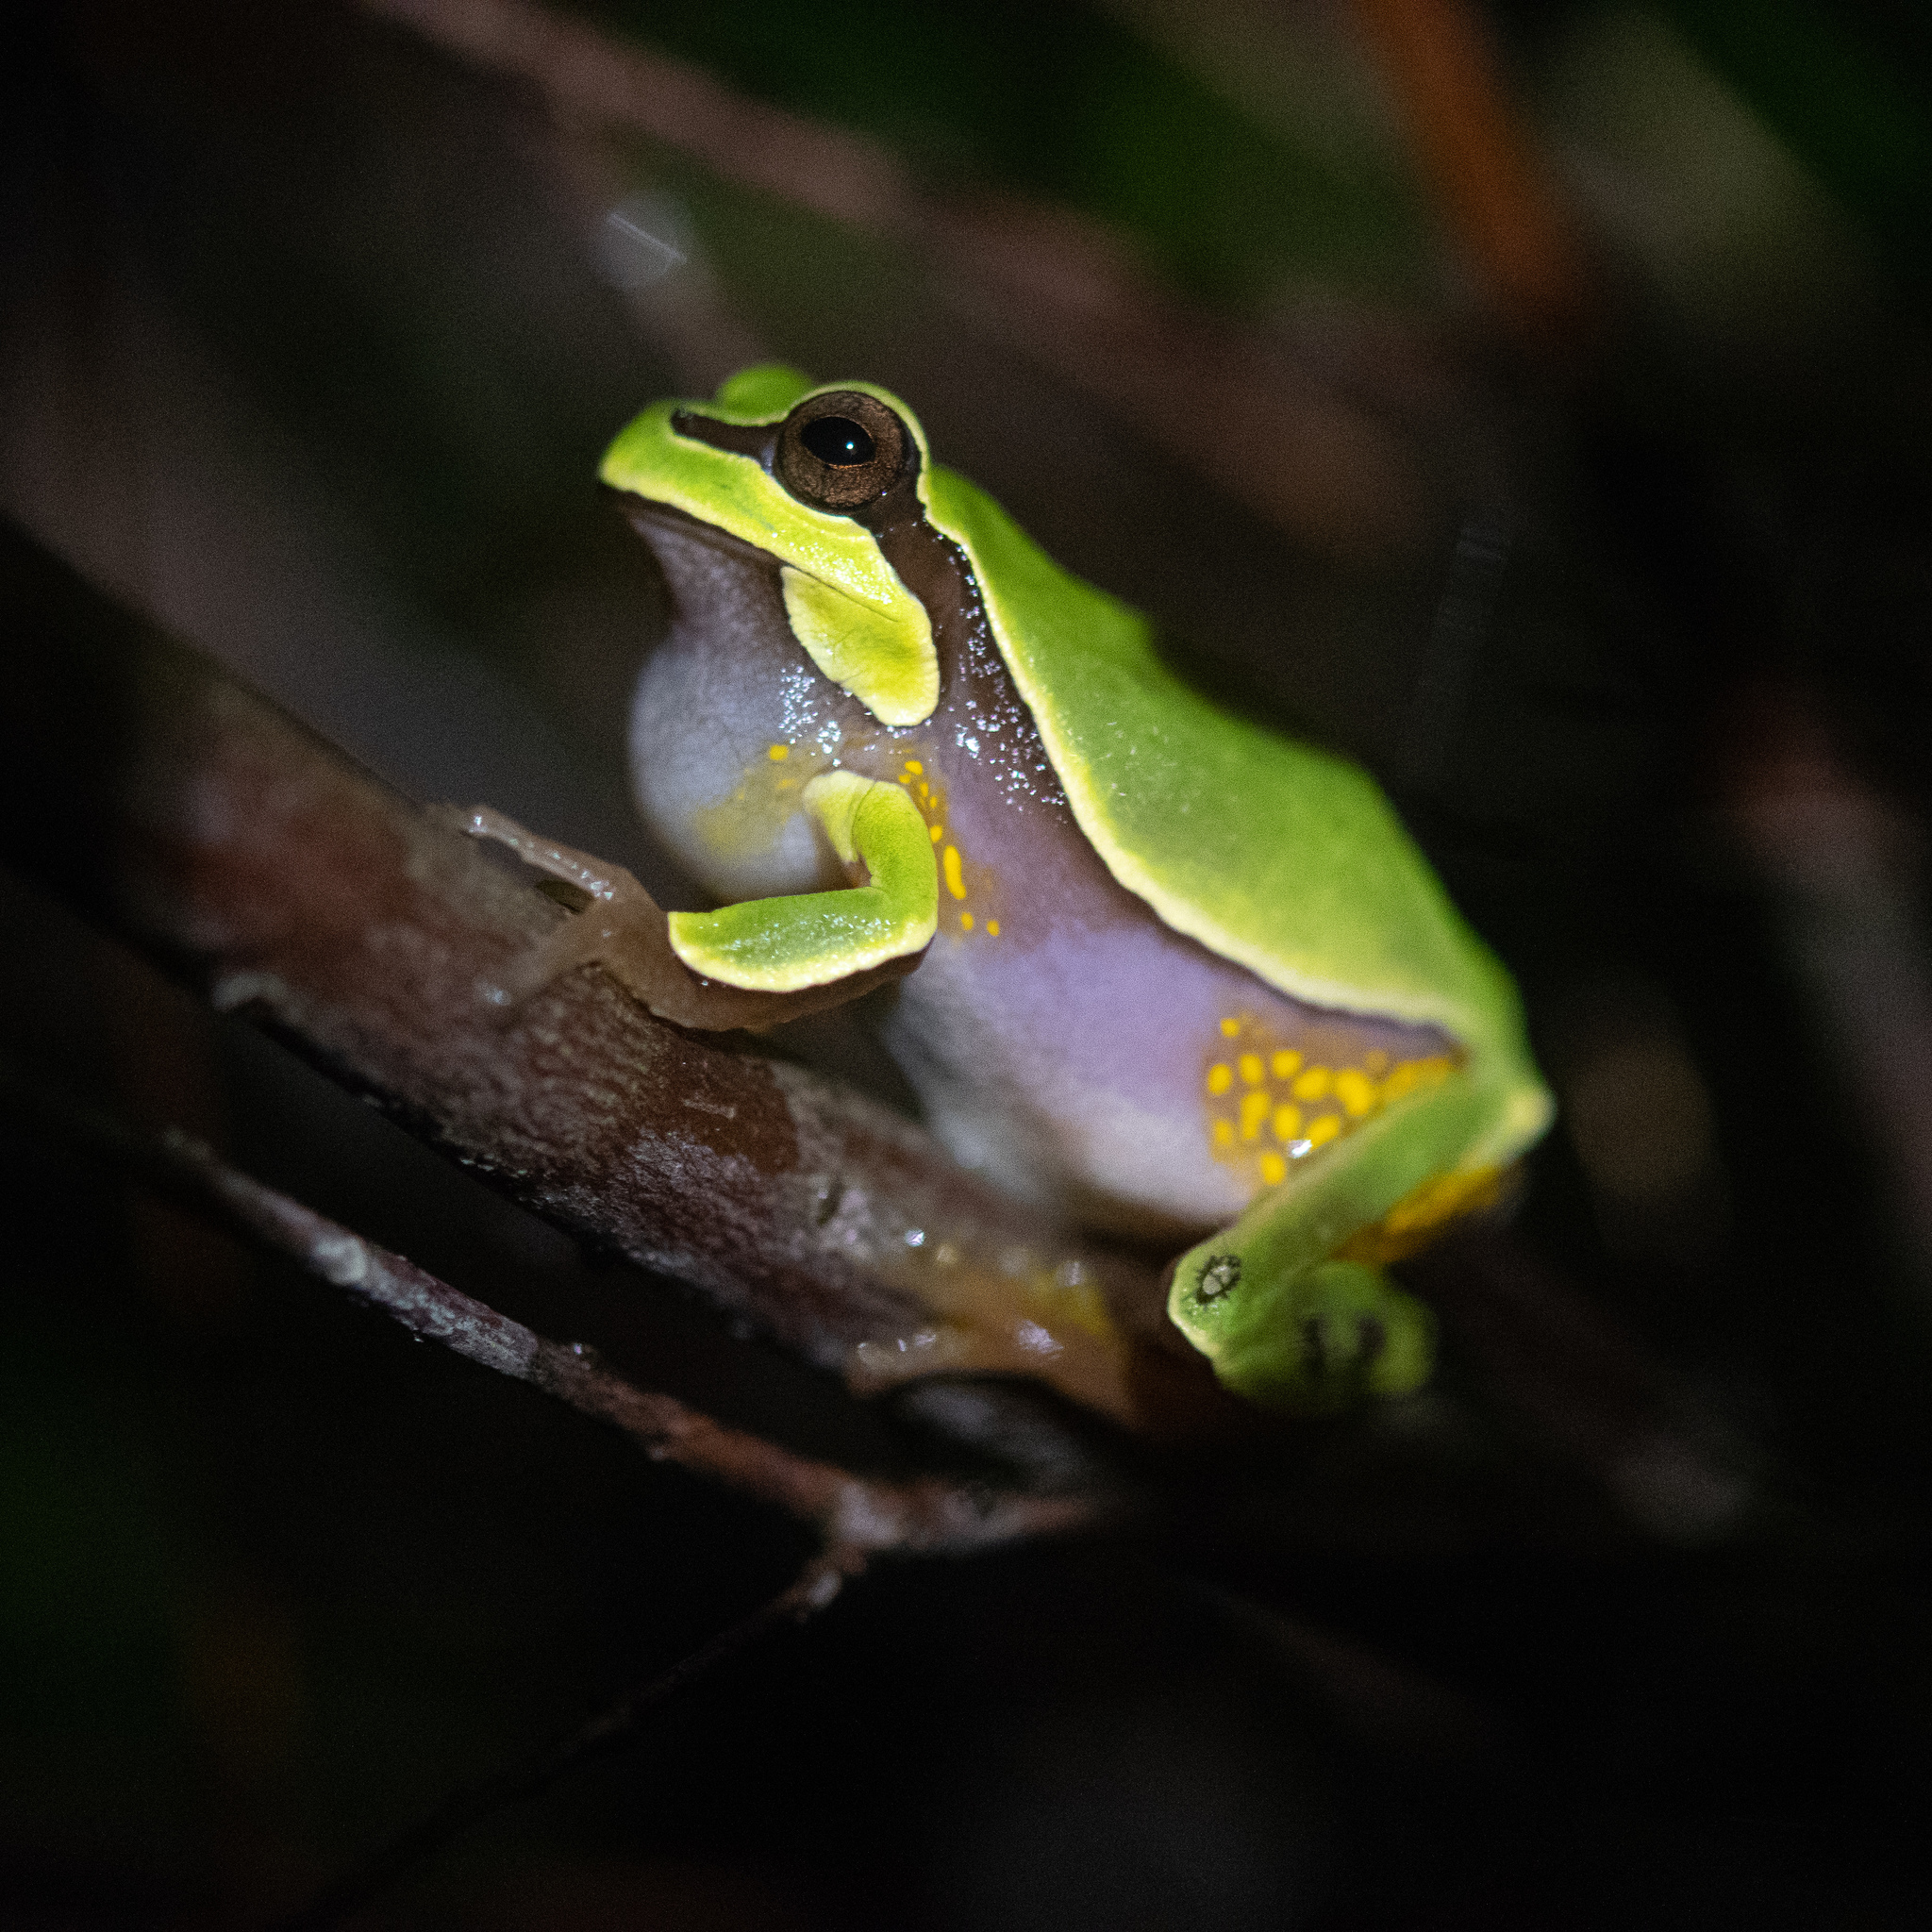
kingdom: Animalia
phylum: Chordata
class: Amphibia
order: Anura
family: Hylidae
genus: Dryophytes
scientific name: Dryophytes andersonii
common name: Pine barrens treefrog
